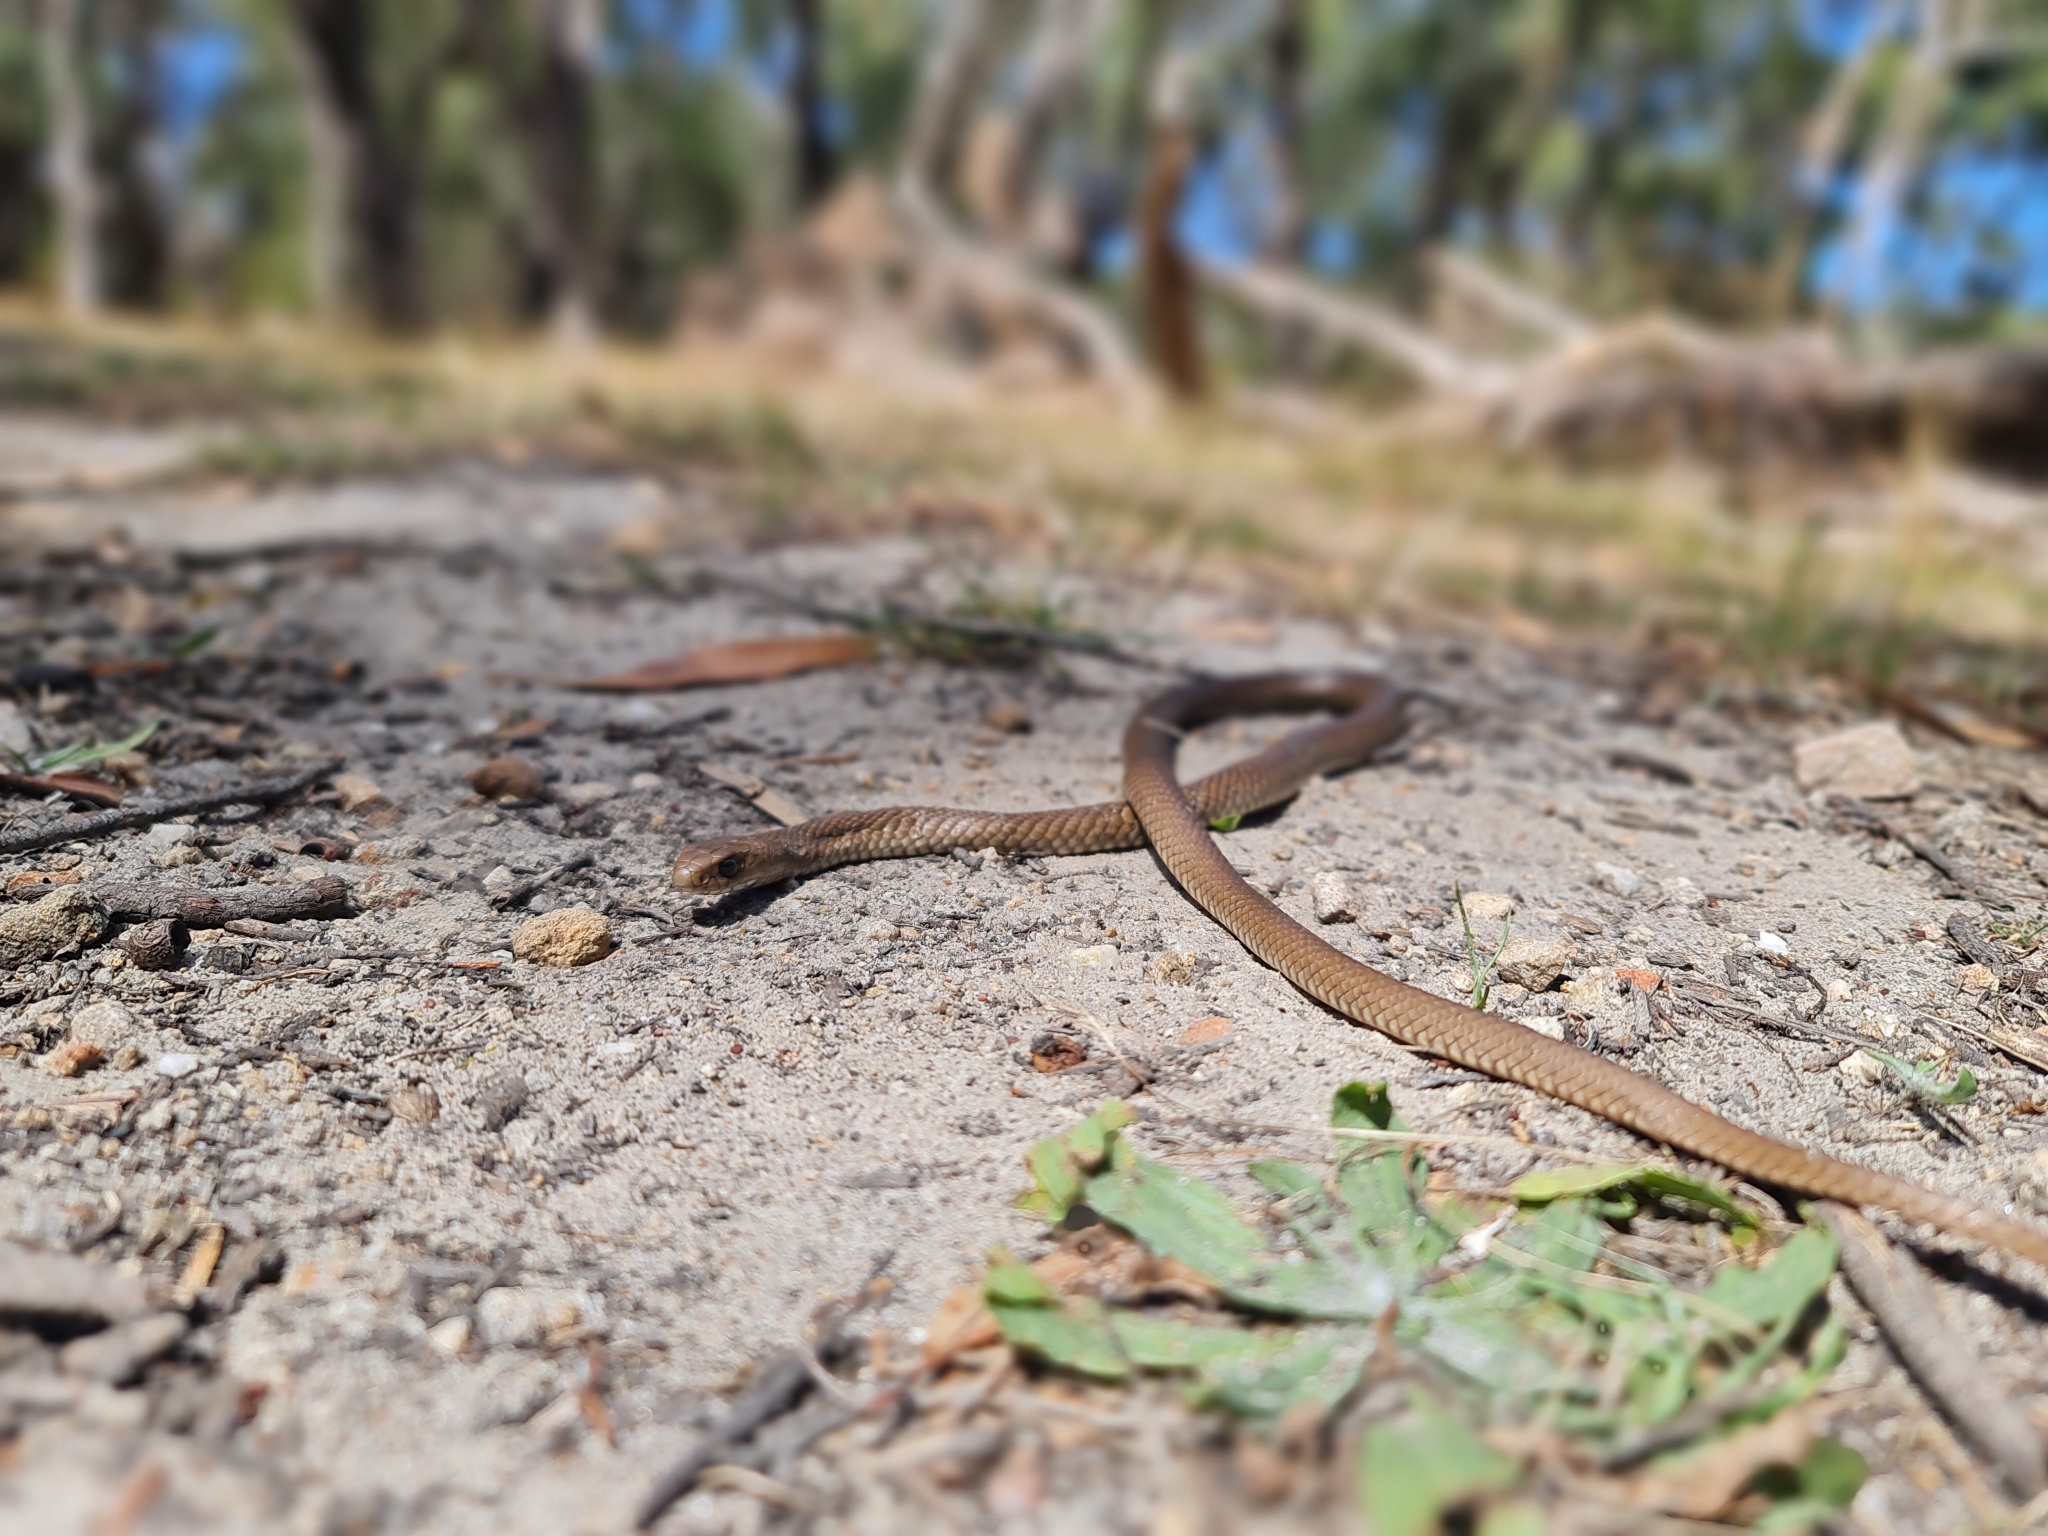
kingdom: Animalia
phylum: Chordata
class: Squamata
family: Elapidae
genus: Pseudonaja
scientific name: Pseudonaja textilis
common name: Eastern brown snake
